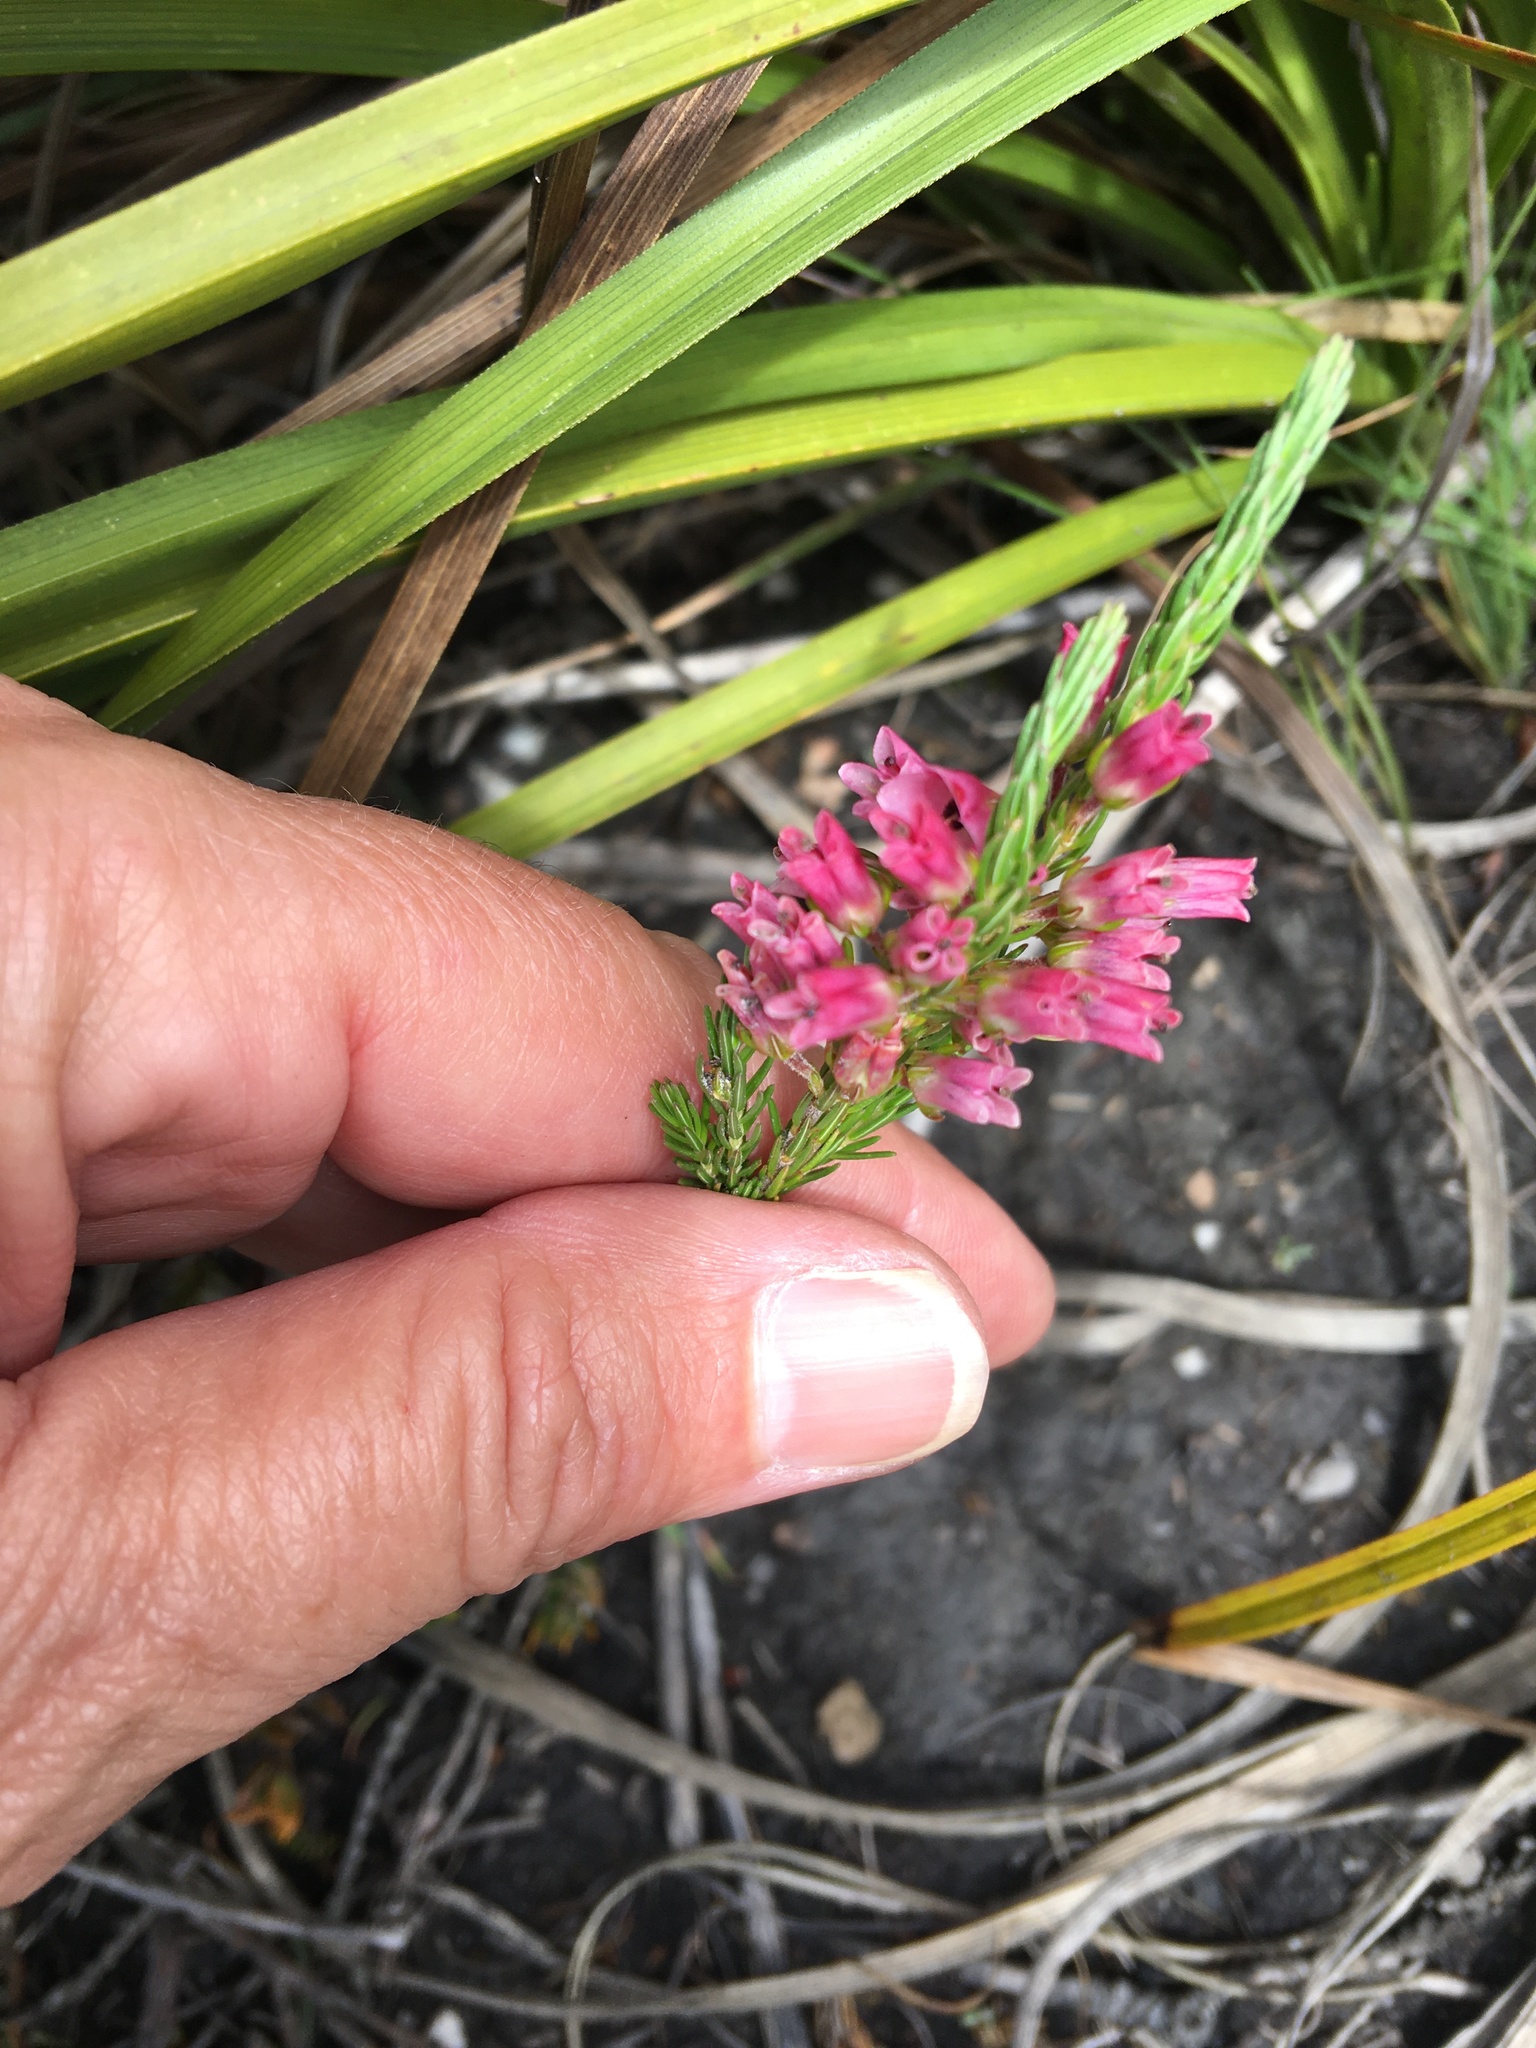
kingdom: Plantae
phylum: Tracheophyta
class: Magnoliopsida
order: Ericales
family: Ericaceae
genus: Erica
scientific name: Erica elimensis
